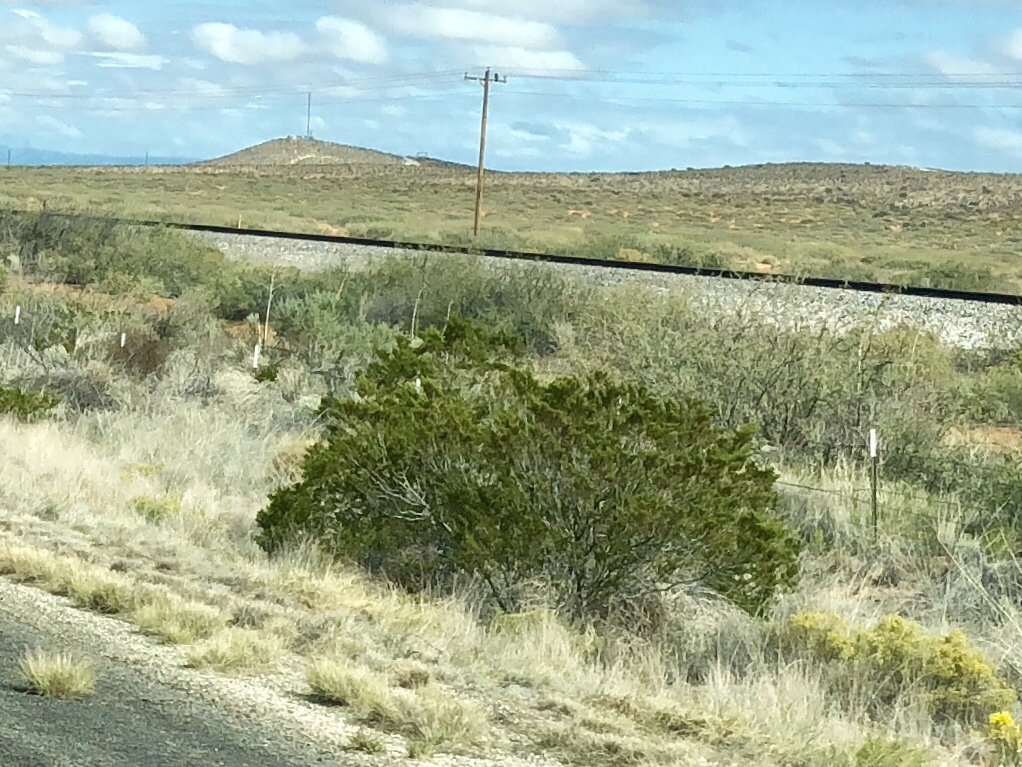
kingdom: Plantae
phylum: Tracheophyta
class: Magnoliopsida
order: Zygophyllales
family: Zygophyllaceae
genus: Larrea
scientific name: Larrea tridentata
